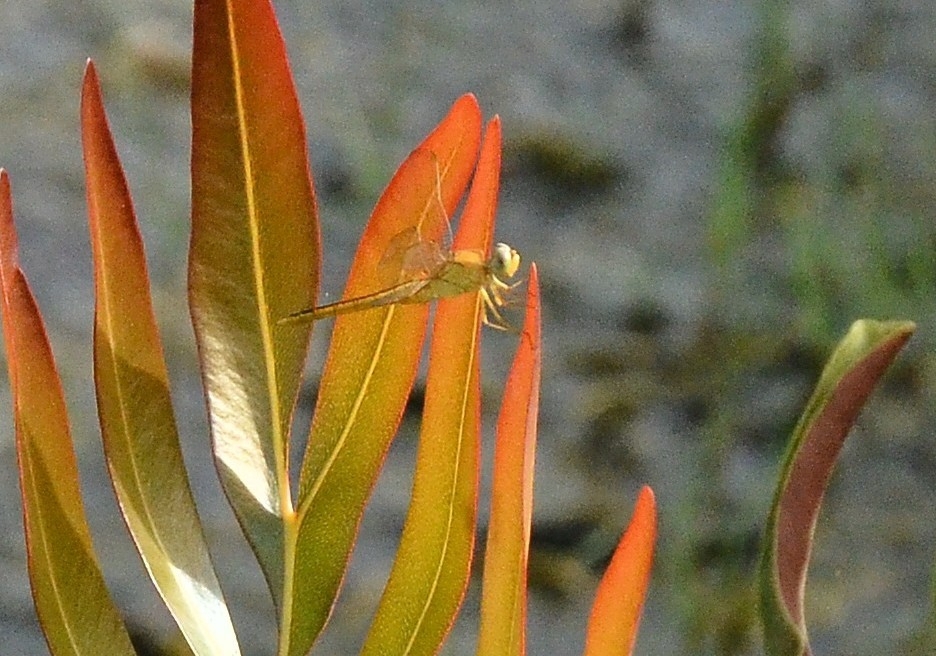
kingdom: Animalia
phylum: Arthropoda
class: Insecta
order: Odonata
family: Libellulidae
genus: Crocothemis
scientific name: Crocothemis servilia
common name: Scarlet skimmer
